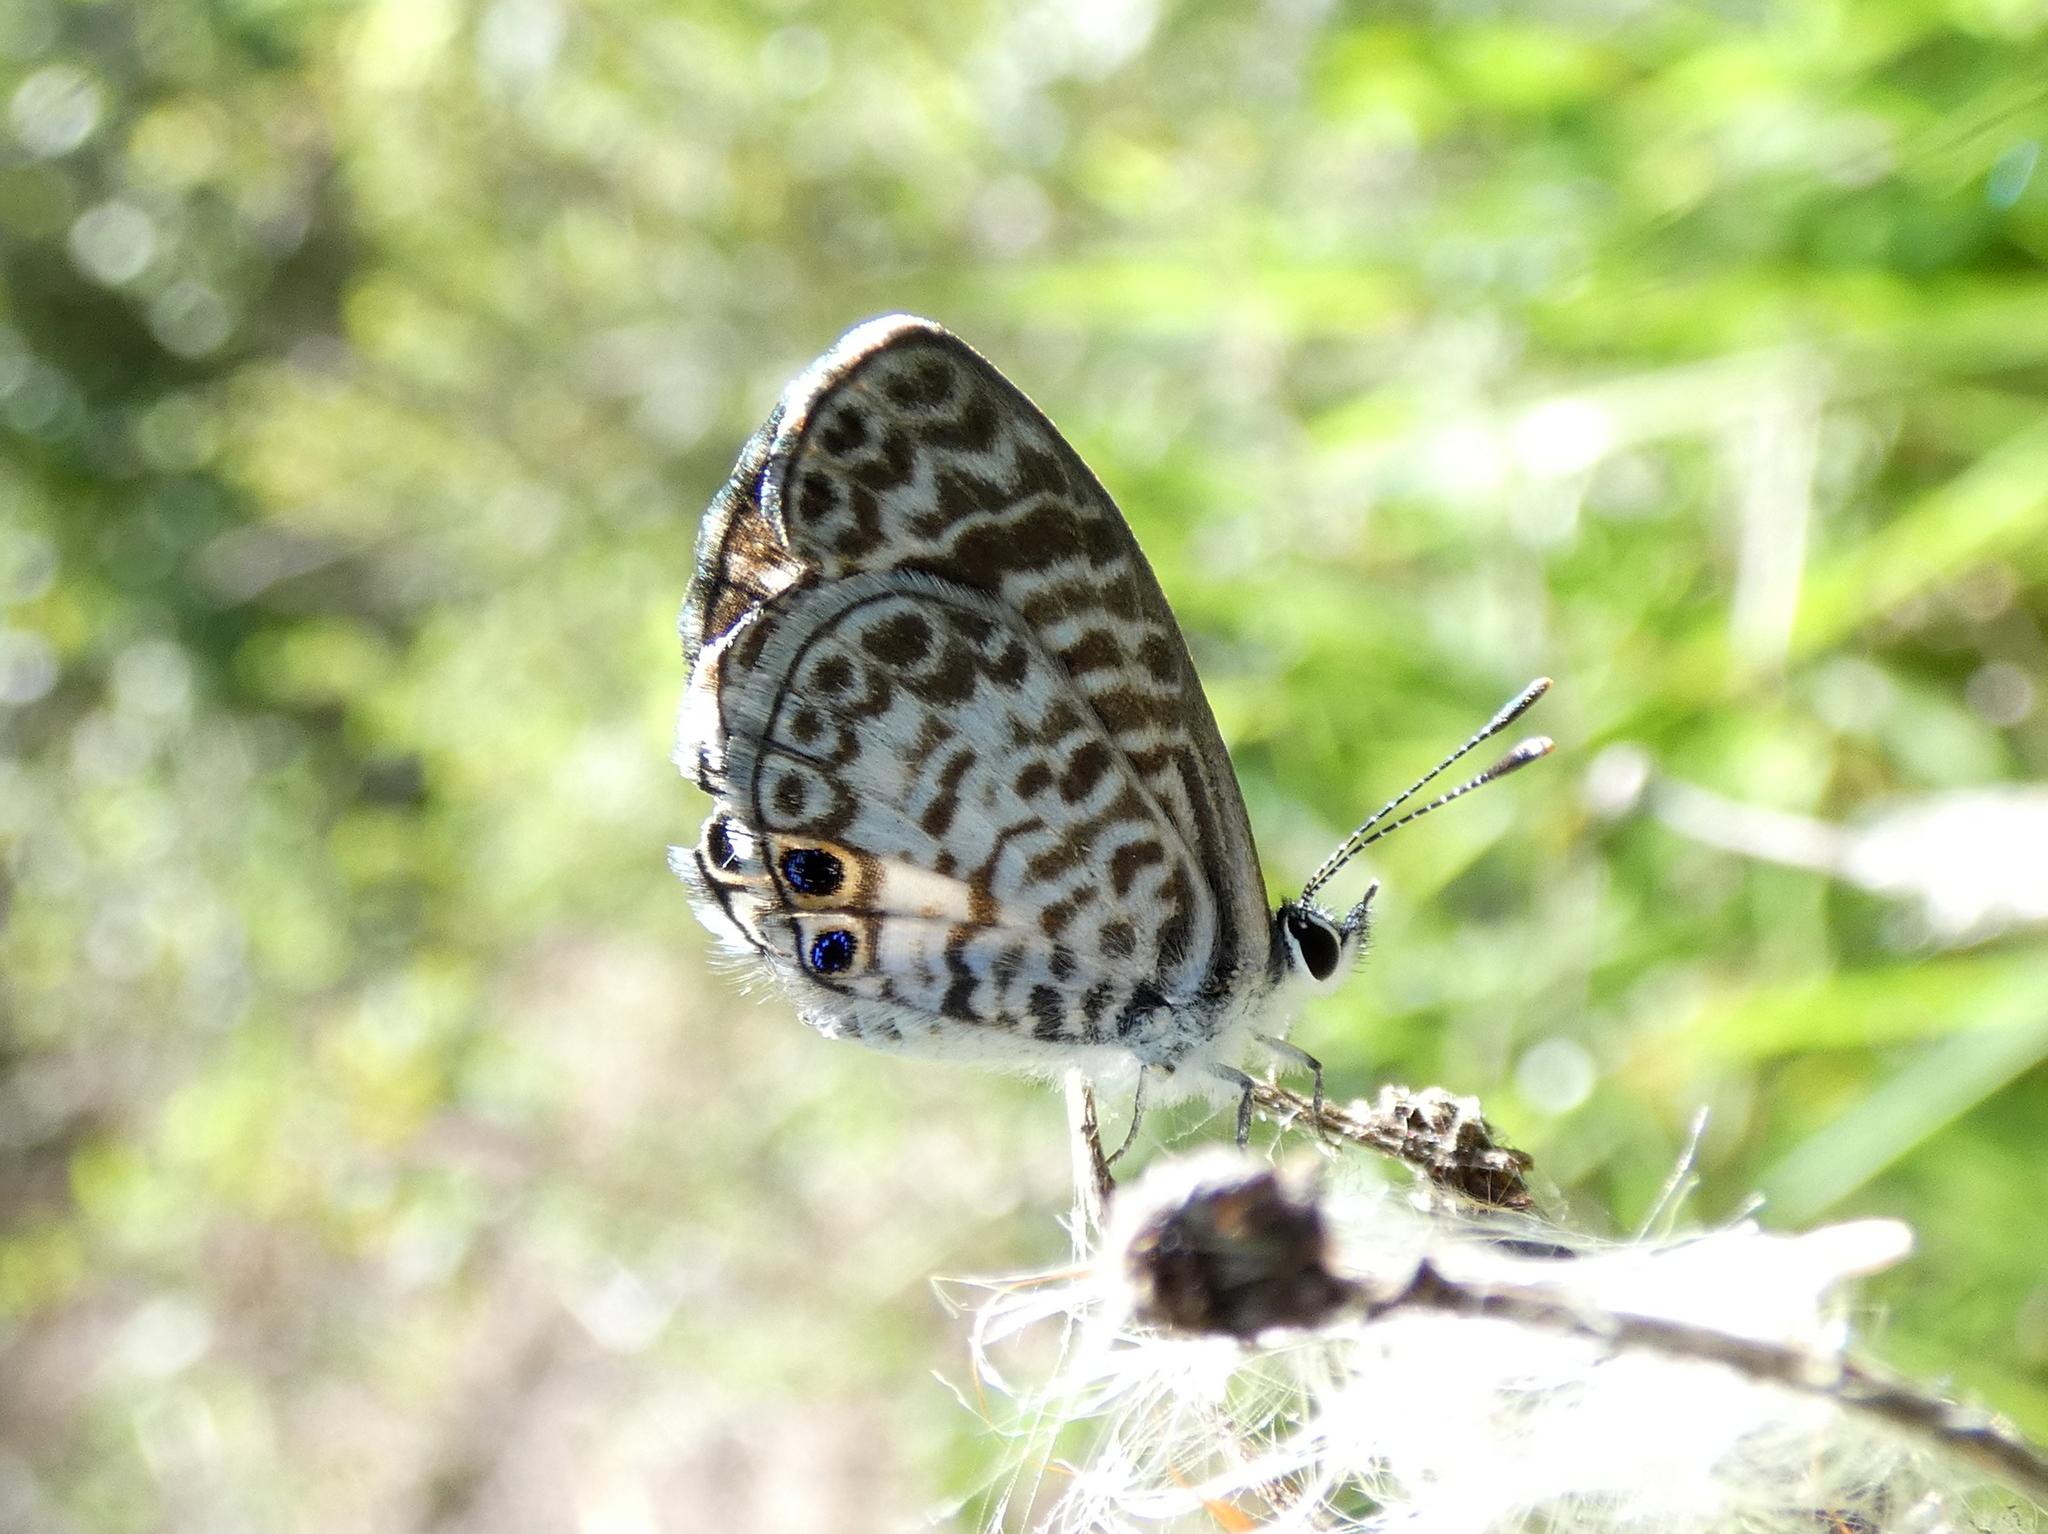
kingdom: Animalia
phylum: Arthropoda
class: Insecta
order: Lepidoptera
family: Lycaenidae
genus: Leptotes
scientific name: Leptotes cassius
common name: Cassius blue
